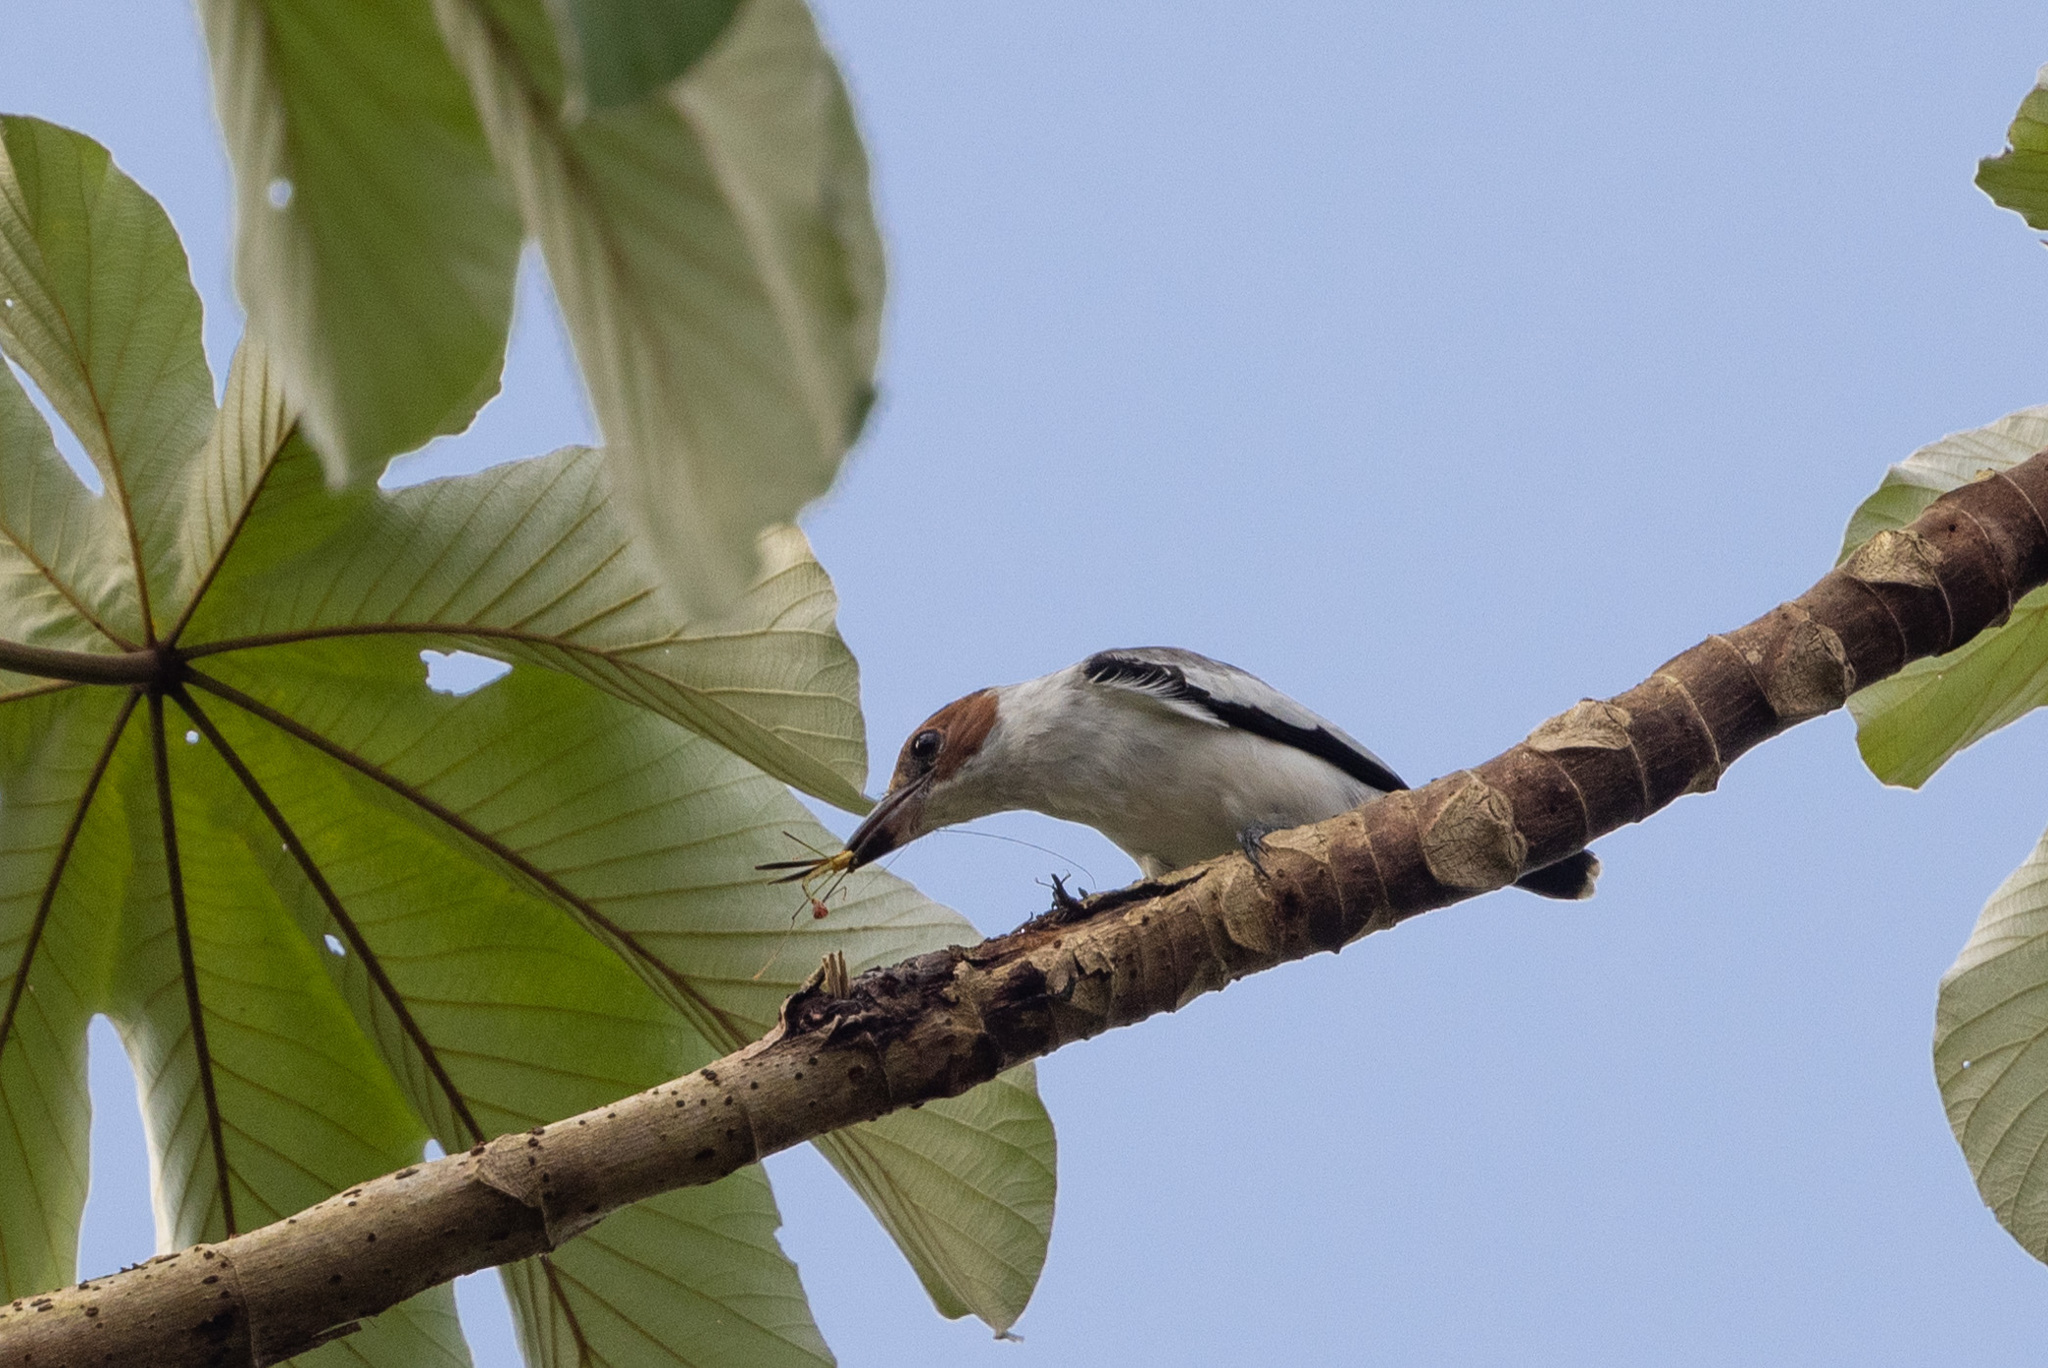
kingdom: Animalia
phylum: Chordata
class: Aves
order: Passeriformes
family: Cotingidae
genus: Tityra
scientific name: Tityra inquisitor
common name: Black-crowned tityra
